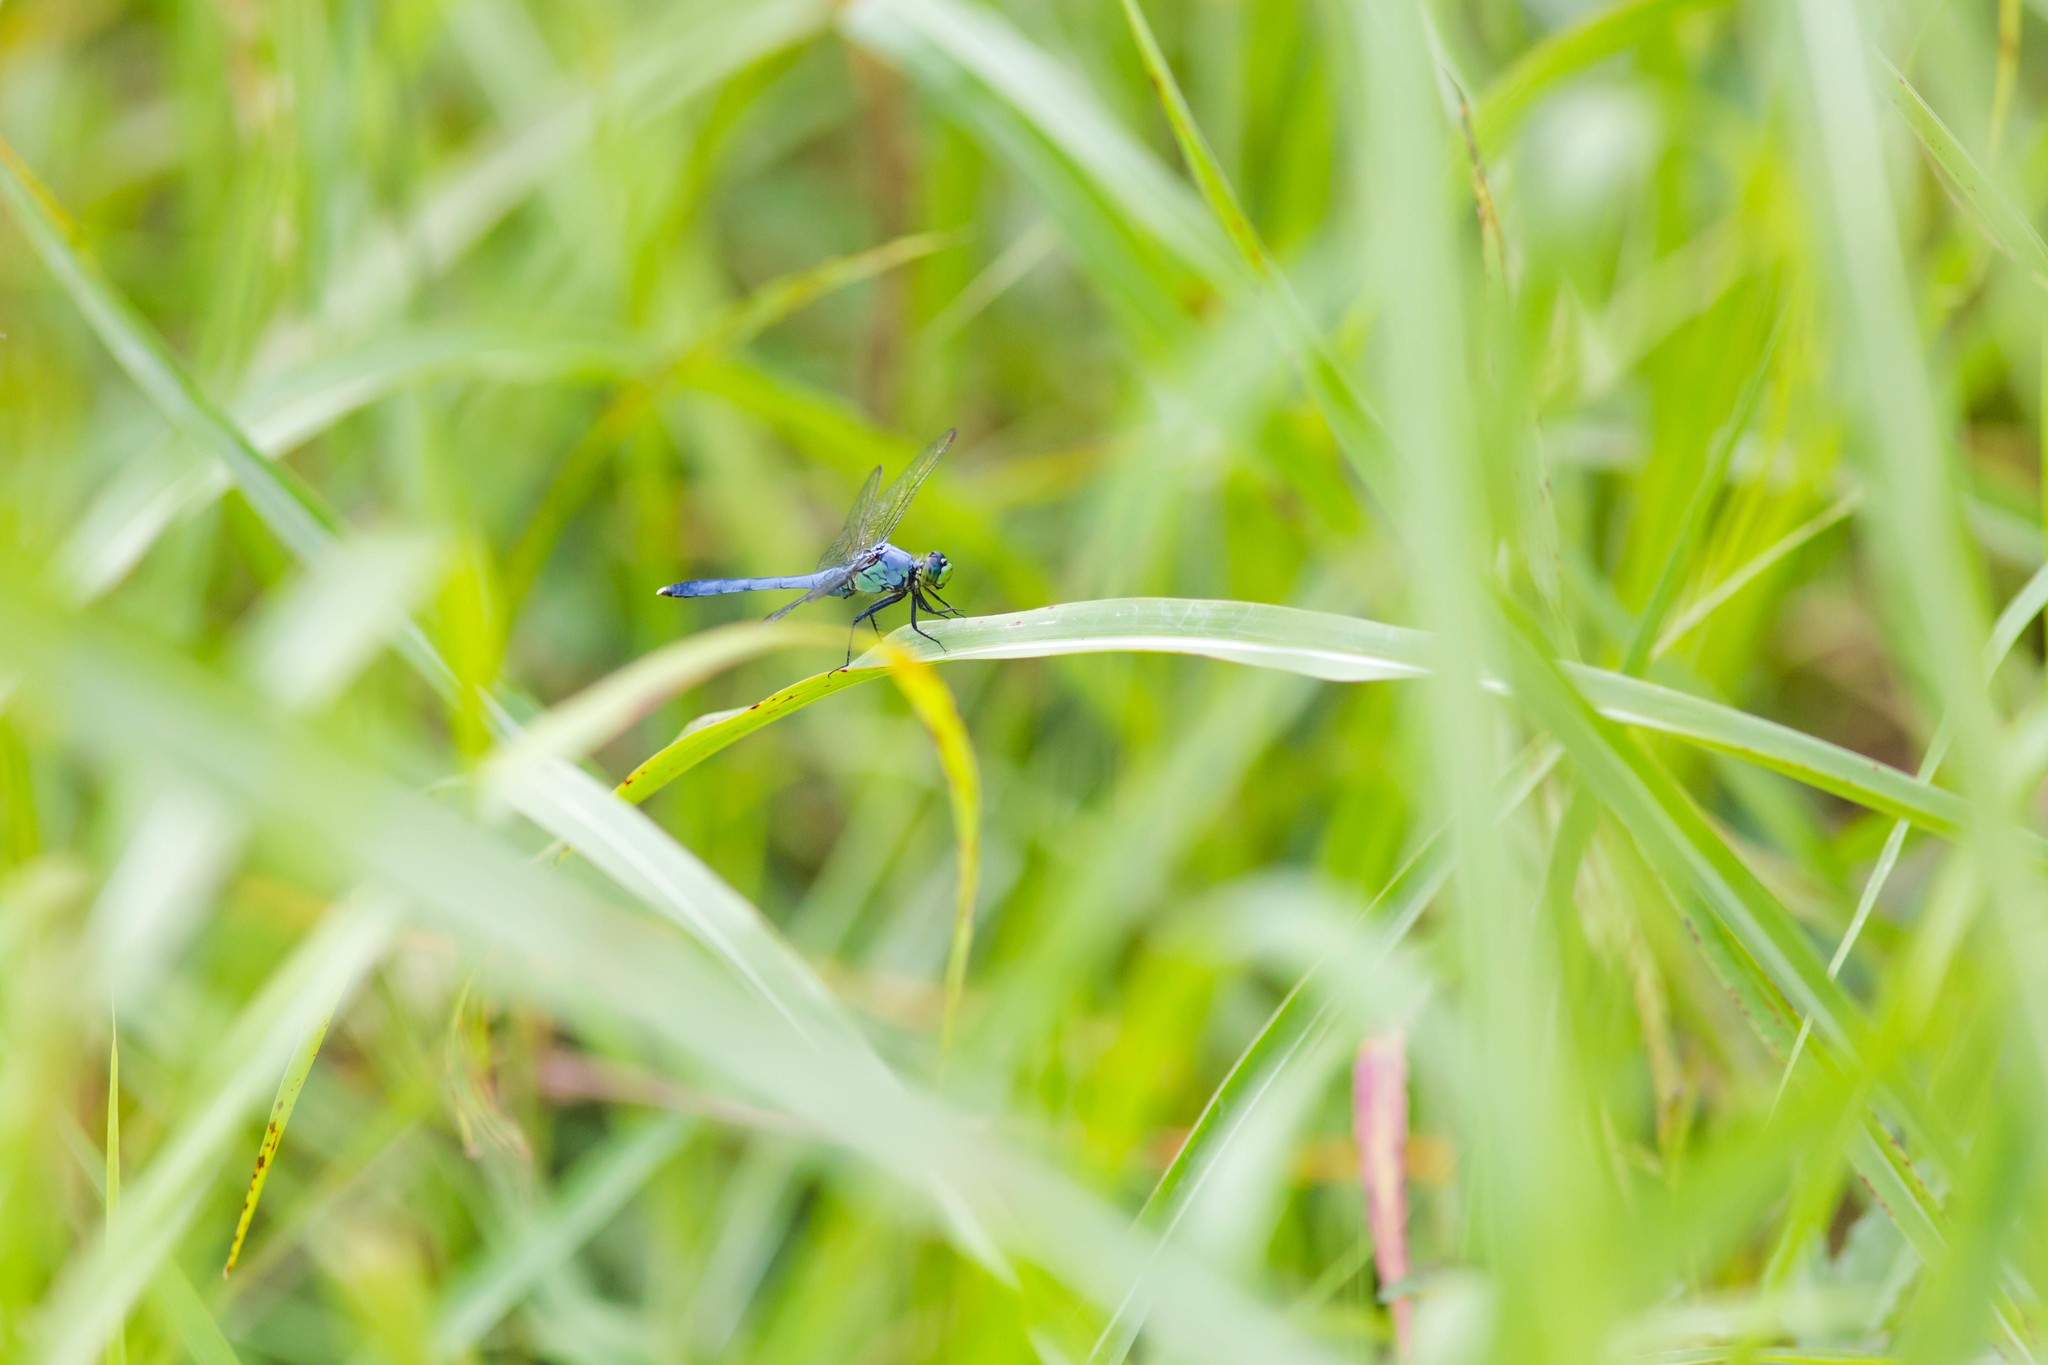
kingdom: Animalia
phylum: Arthropoda
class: Insecta
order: Odonata
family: Libellulidae
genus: Erythemis
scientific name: Erythemis simplicicollis
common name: Eastern pondhawk
